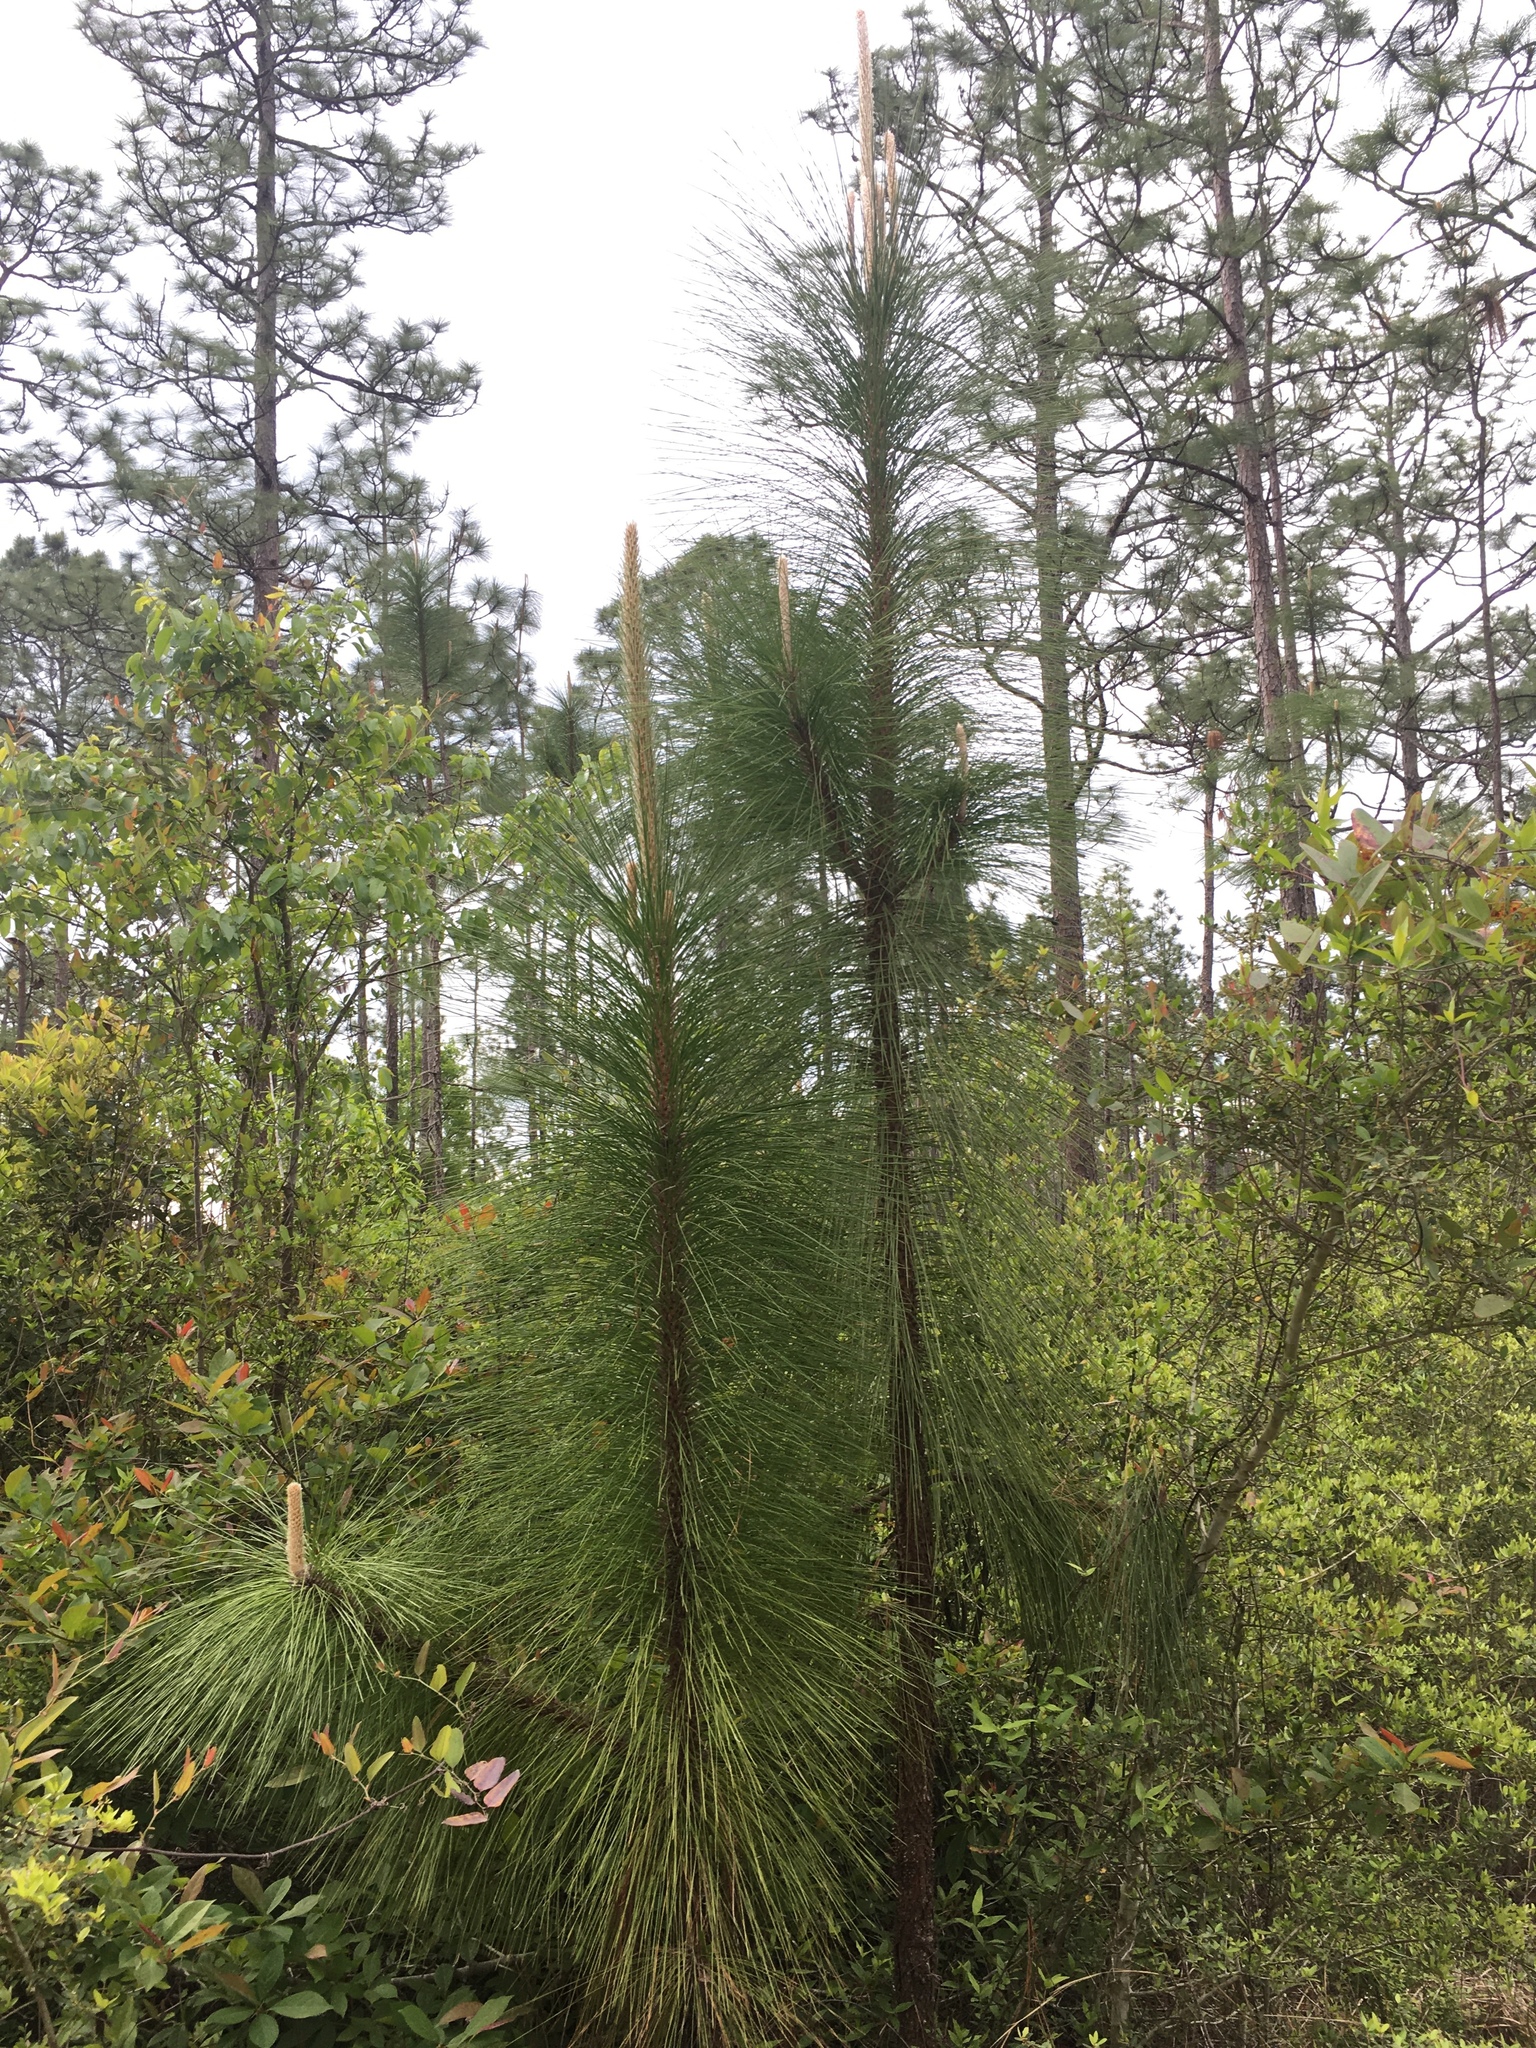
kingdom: Plantae
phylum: Tracheophyta
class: Pinopsida
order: Pinales
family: Pinaceae
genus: Pinus
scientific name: Pinus palustris
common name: Longleaf pine
